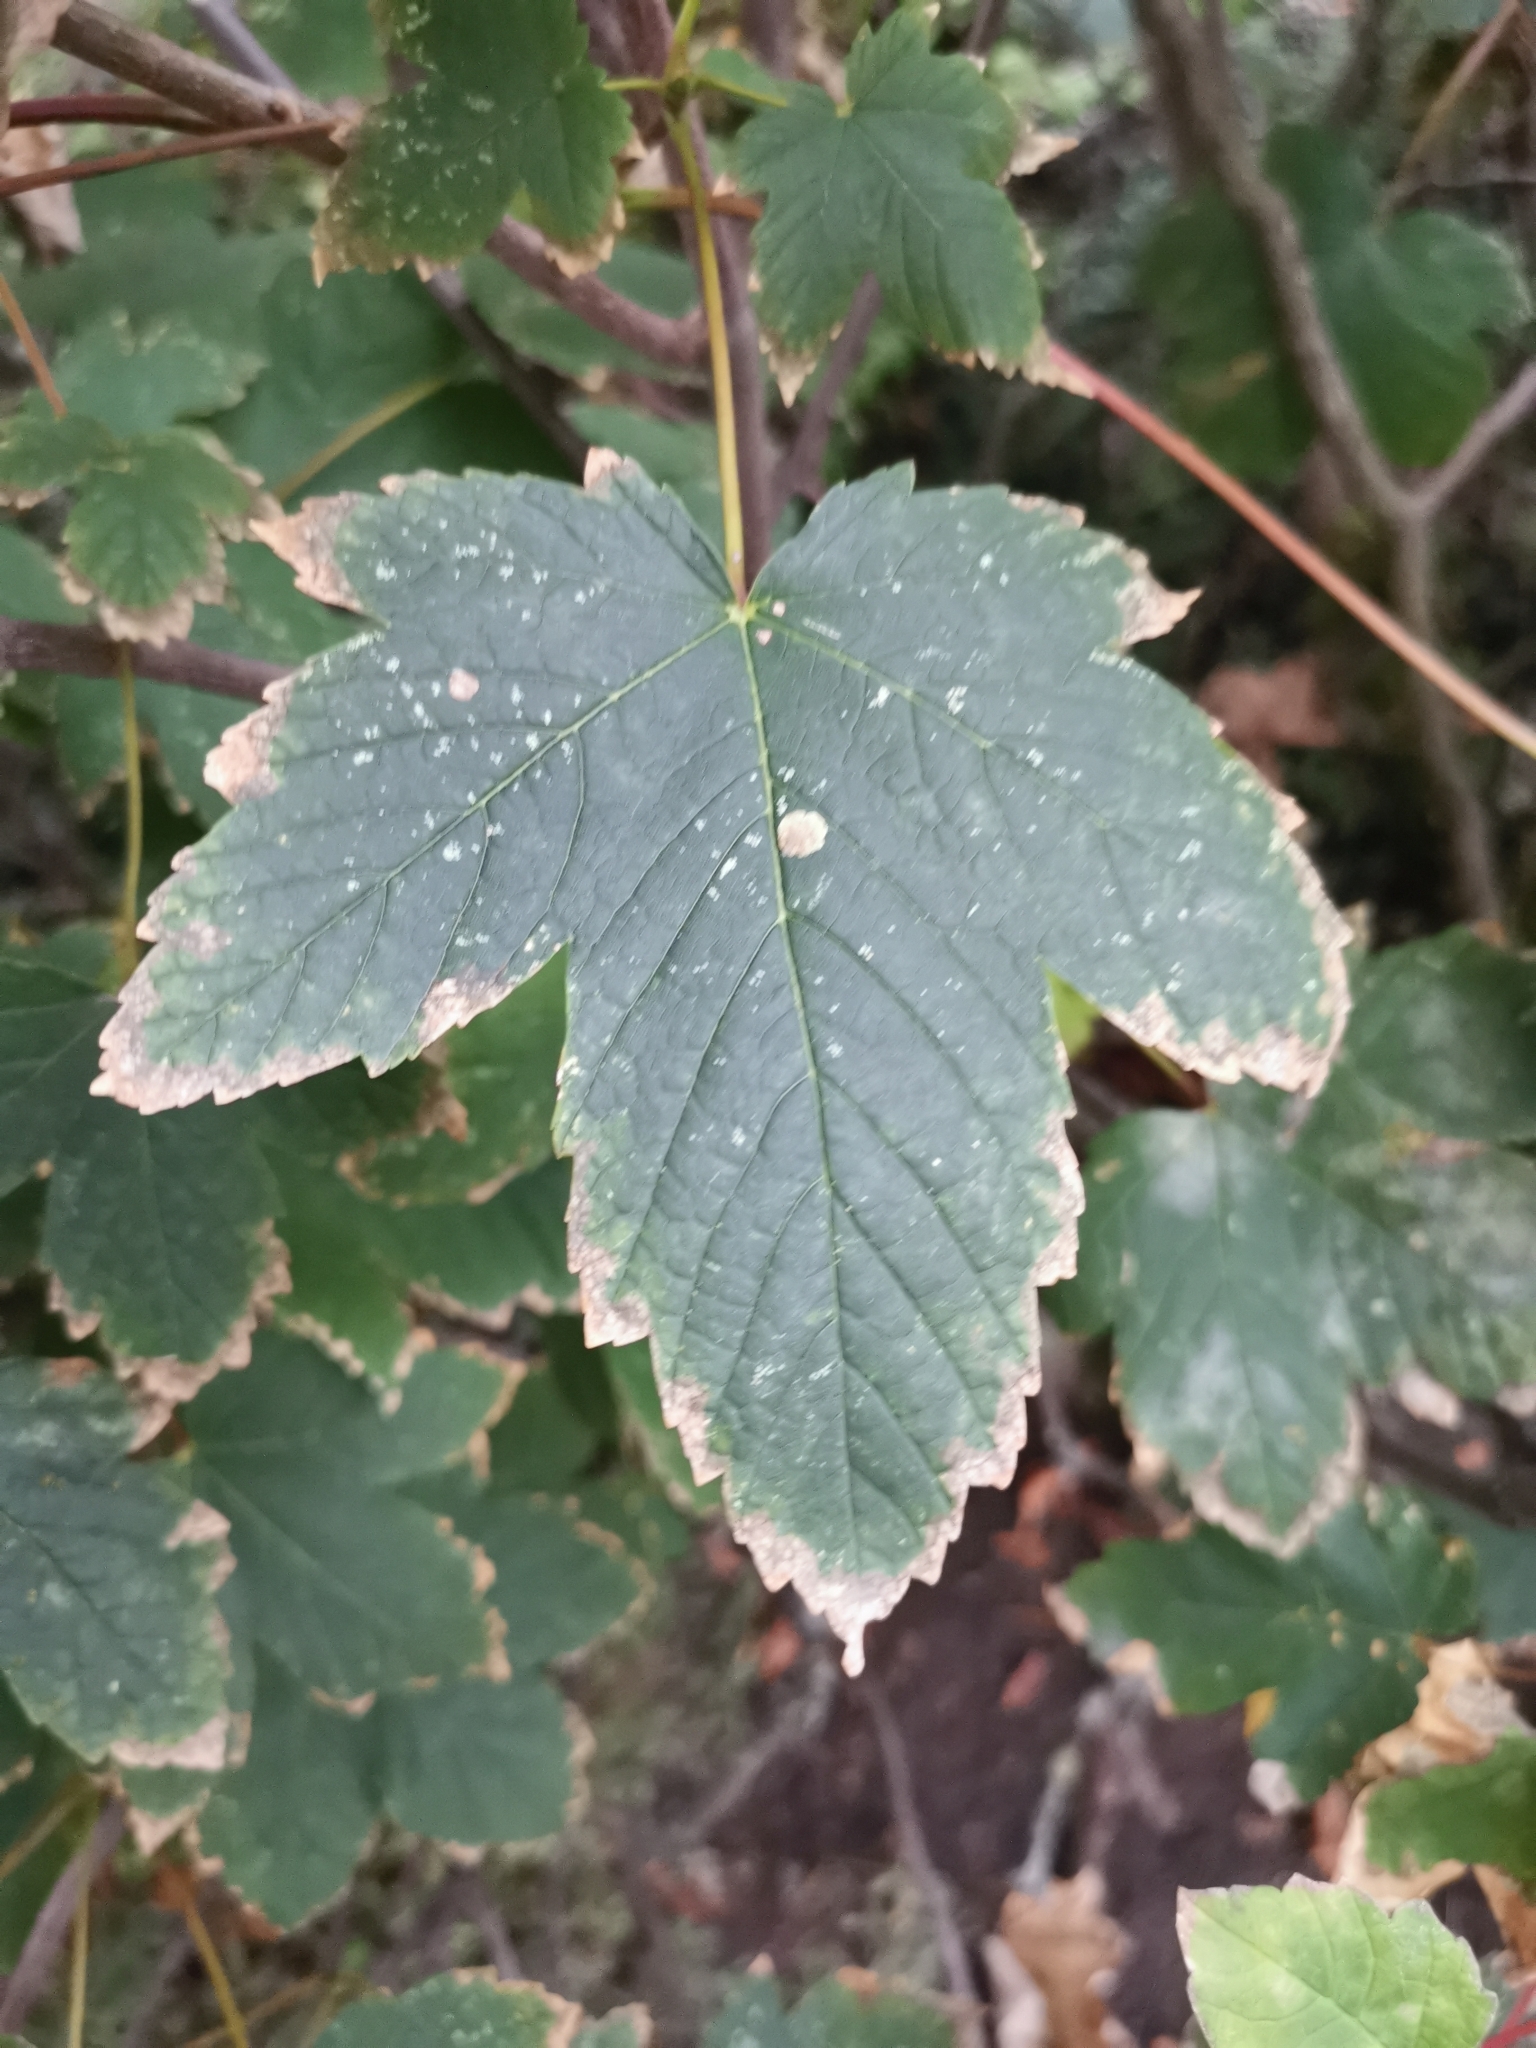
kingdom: Plantae
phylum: Tracheophyta
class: Magnoliopsida
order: Sapindales
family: Sapindaceae
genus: Acer
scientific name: Acer pseudoplatanus
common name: Sycamore
